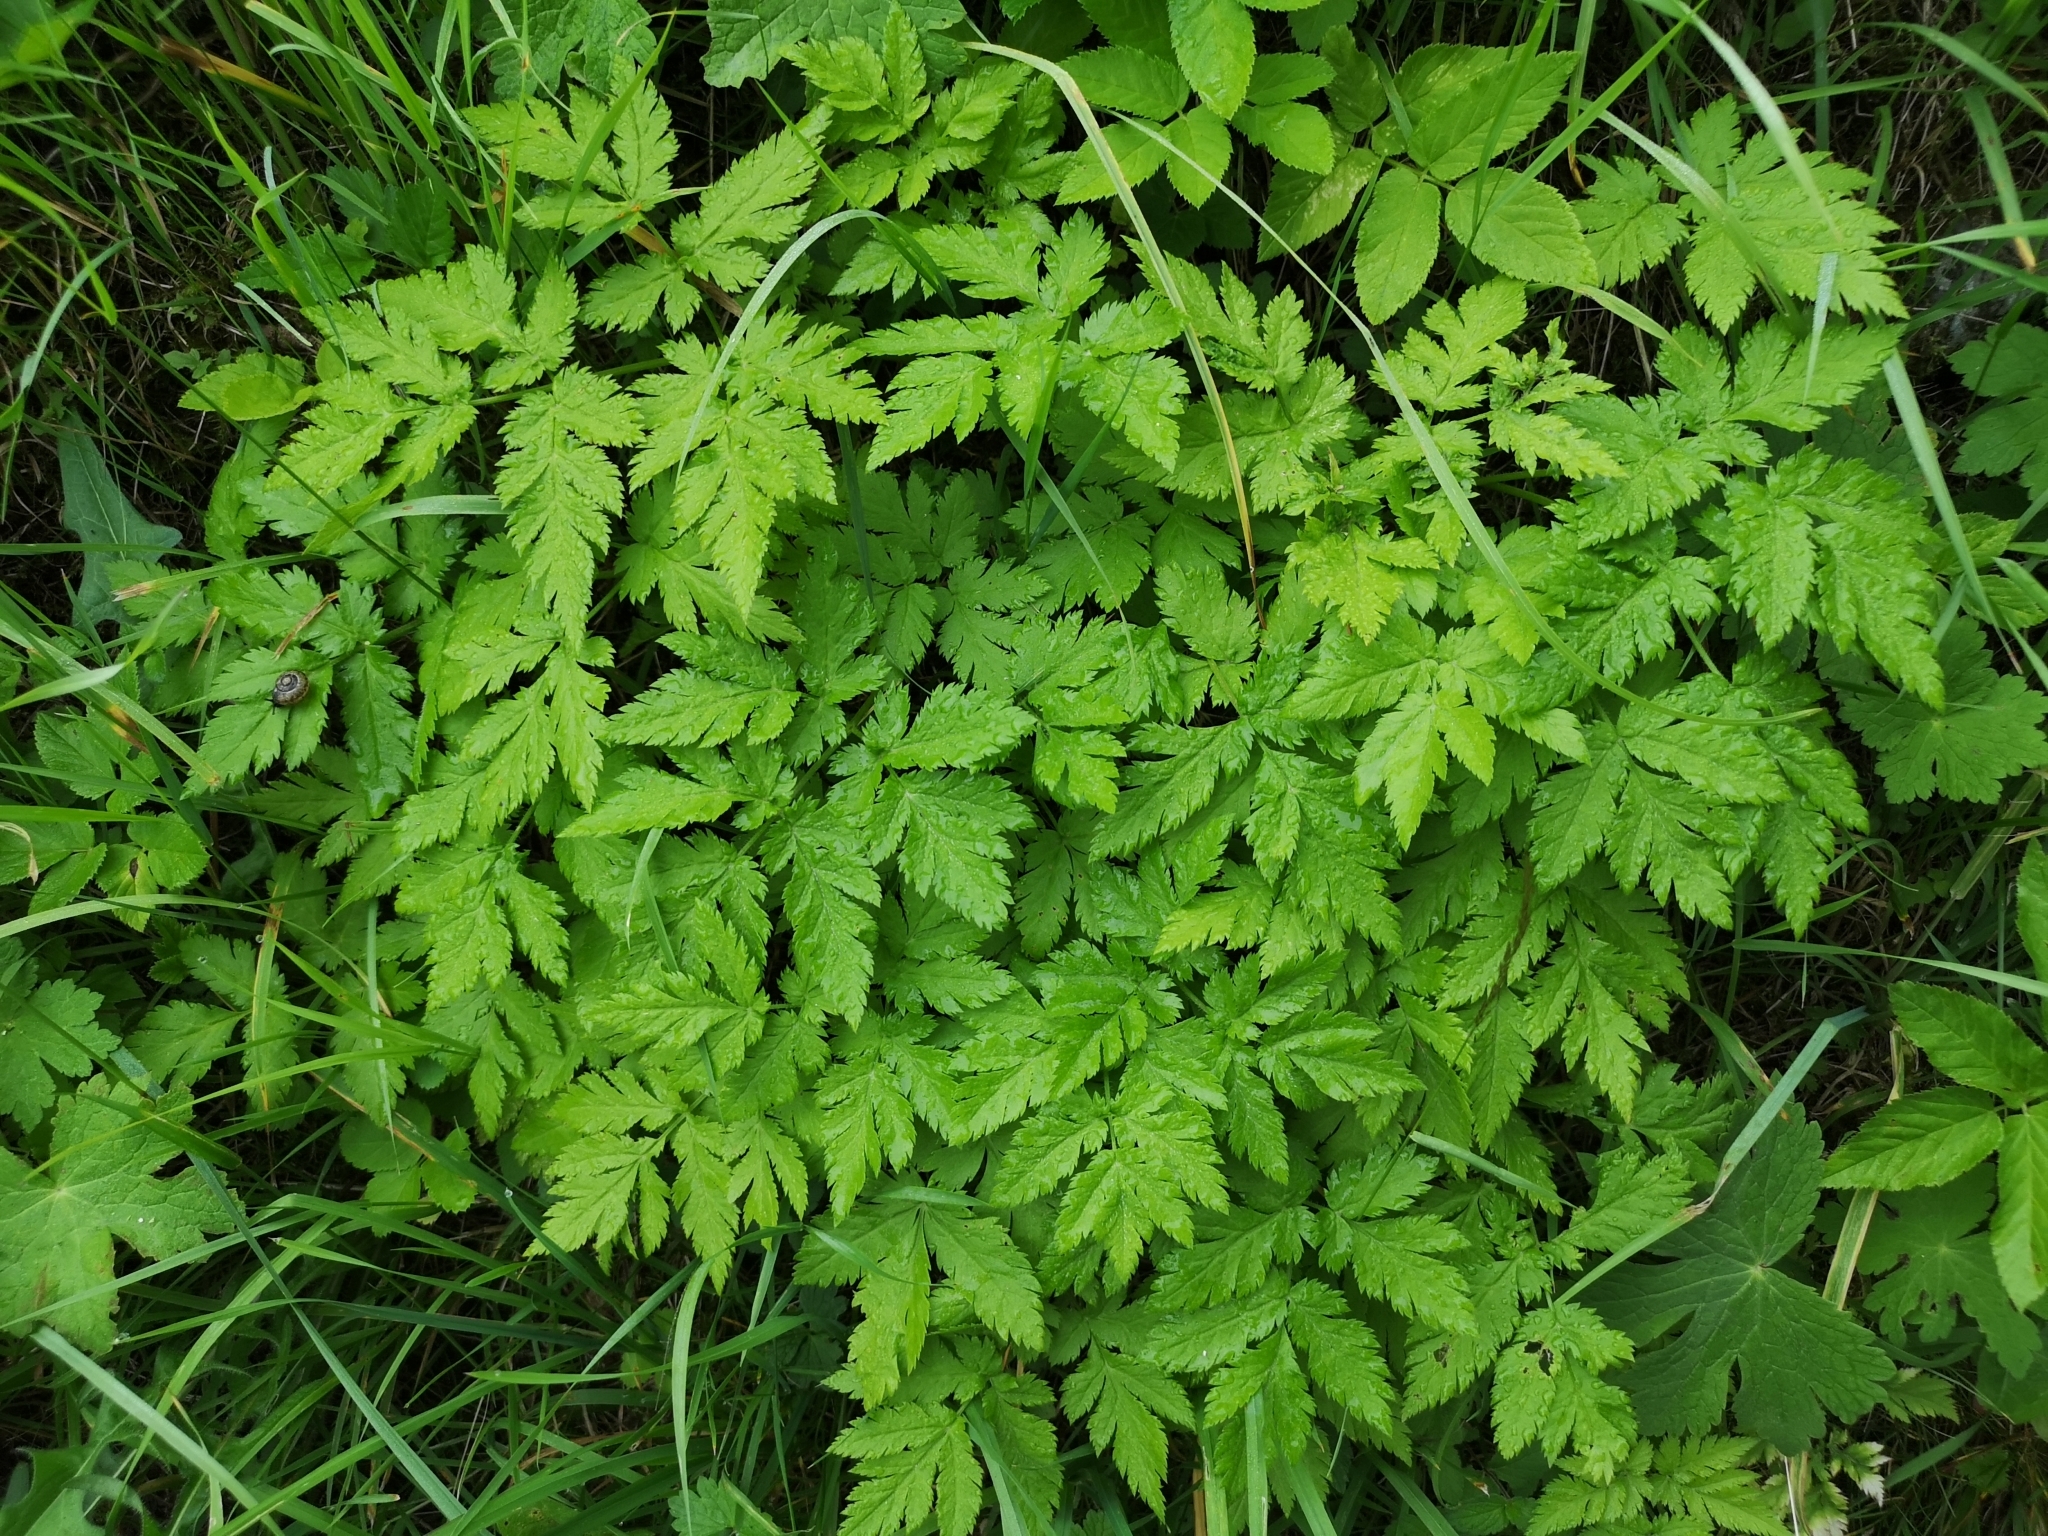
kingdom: Plantae
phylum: Tracheophyta
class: Magnoliopsida
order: Apiales
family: Apiaceae
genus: Chaerophyllum
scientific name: Chaerophyllum hirsutum
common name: Hairy chervil
